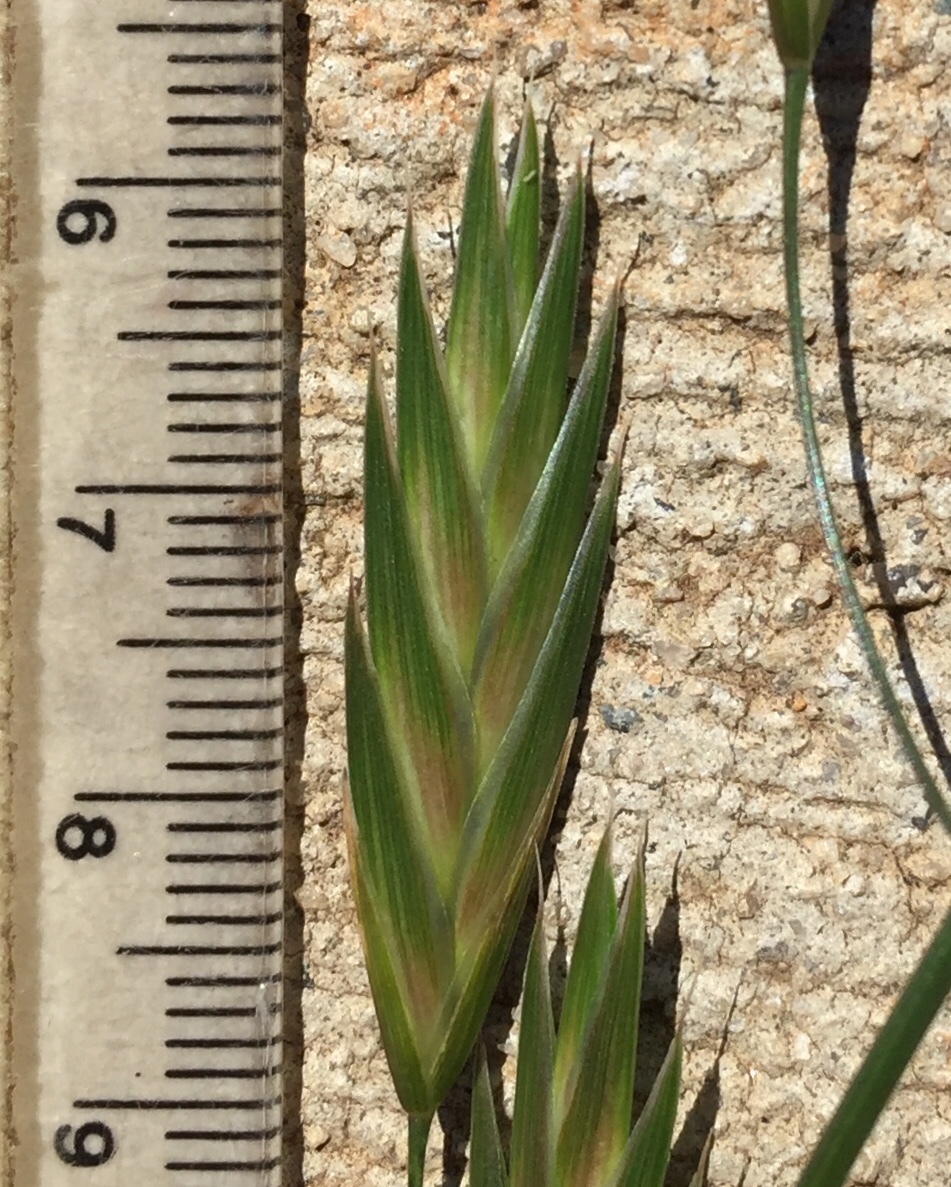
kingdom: Plantae
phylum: Tracheophyta
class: Liliopsida
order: Poales
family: Poaceae
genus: Bromus
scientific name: Bromus catharticus
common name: Rescuegrass
